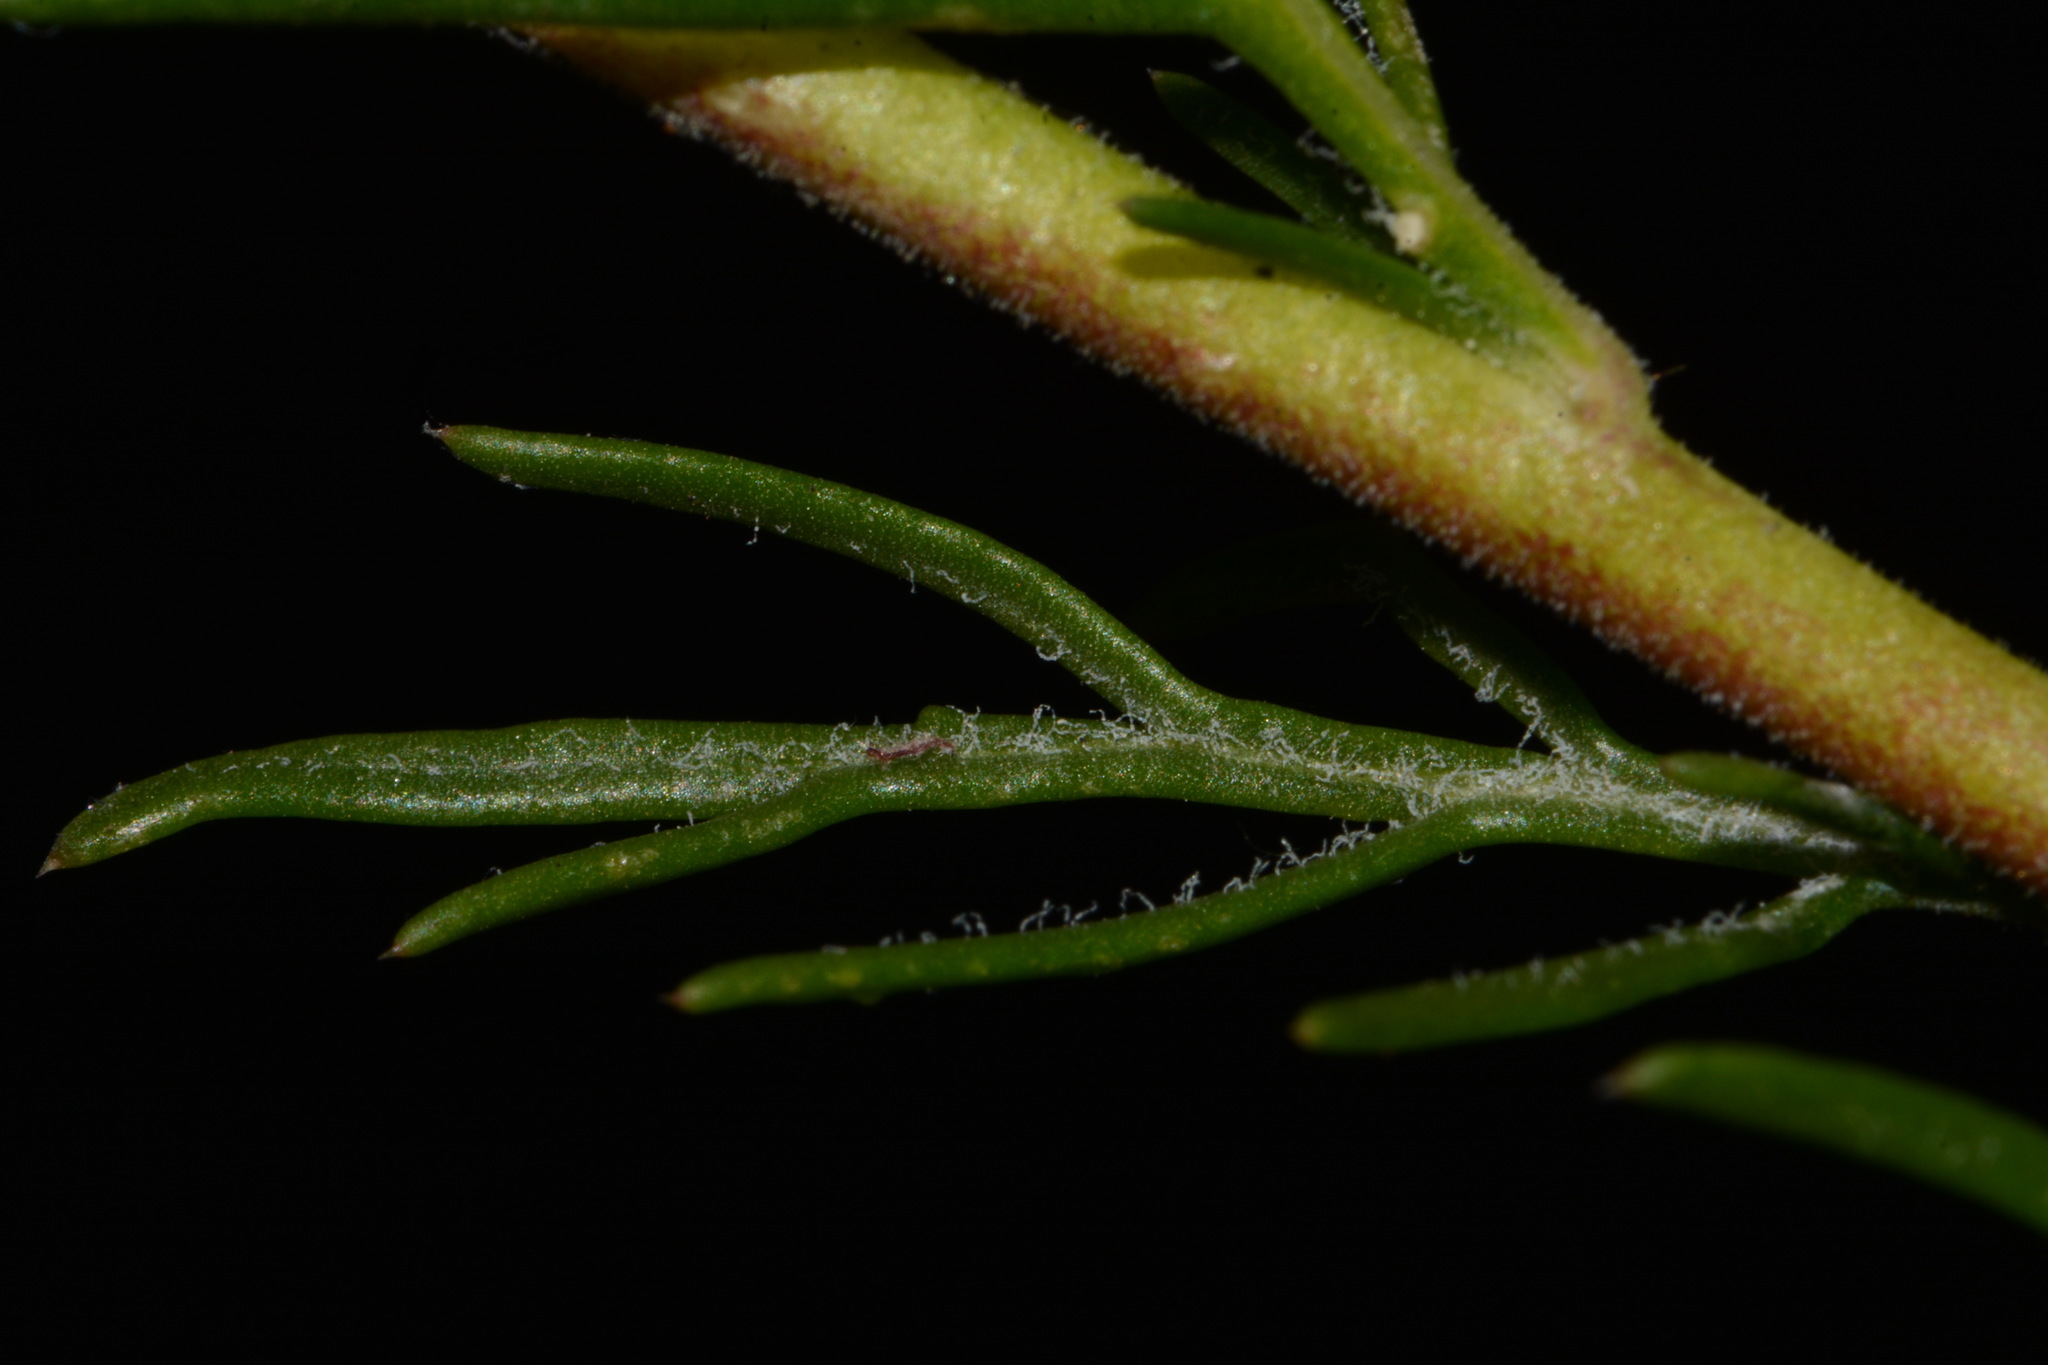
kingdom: Plantae
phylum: Tracheophyta
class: Magnoliopsida
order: Ericales
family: Polemoniaceae
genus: Ipomopsis
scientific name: Ipomopsis aggregata
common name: Scarlet gilia
